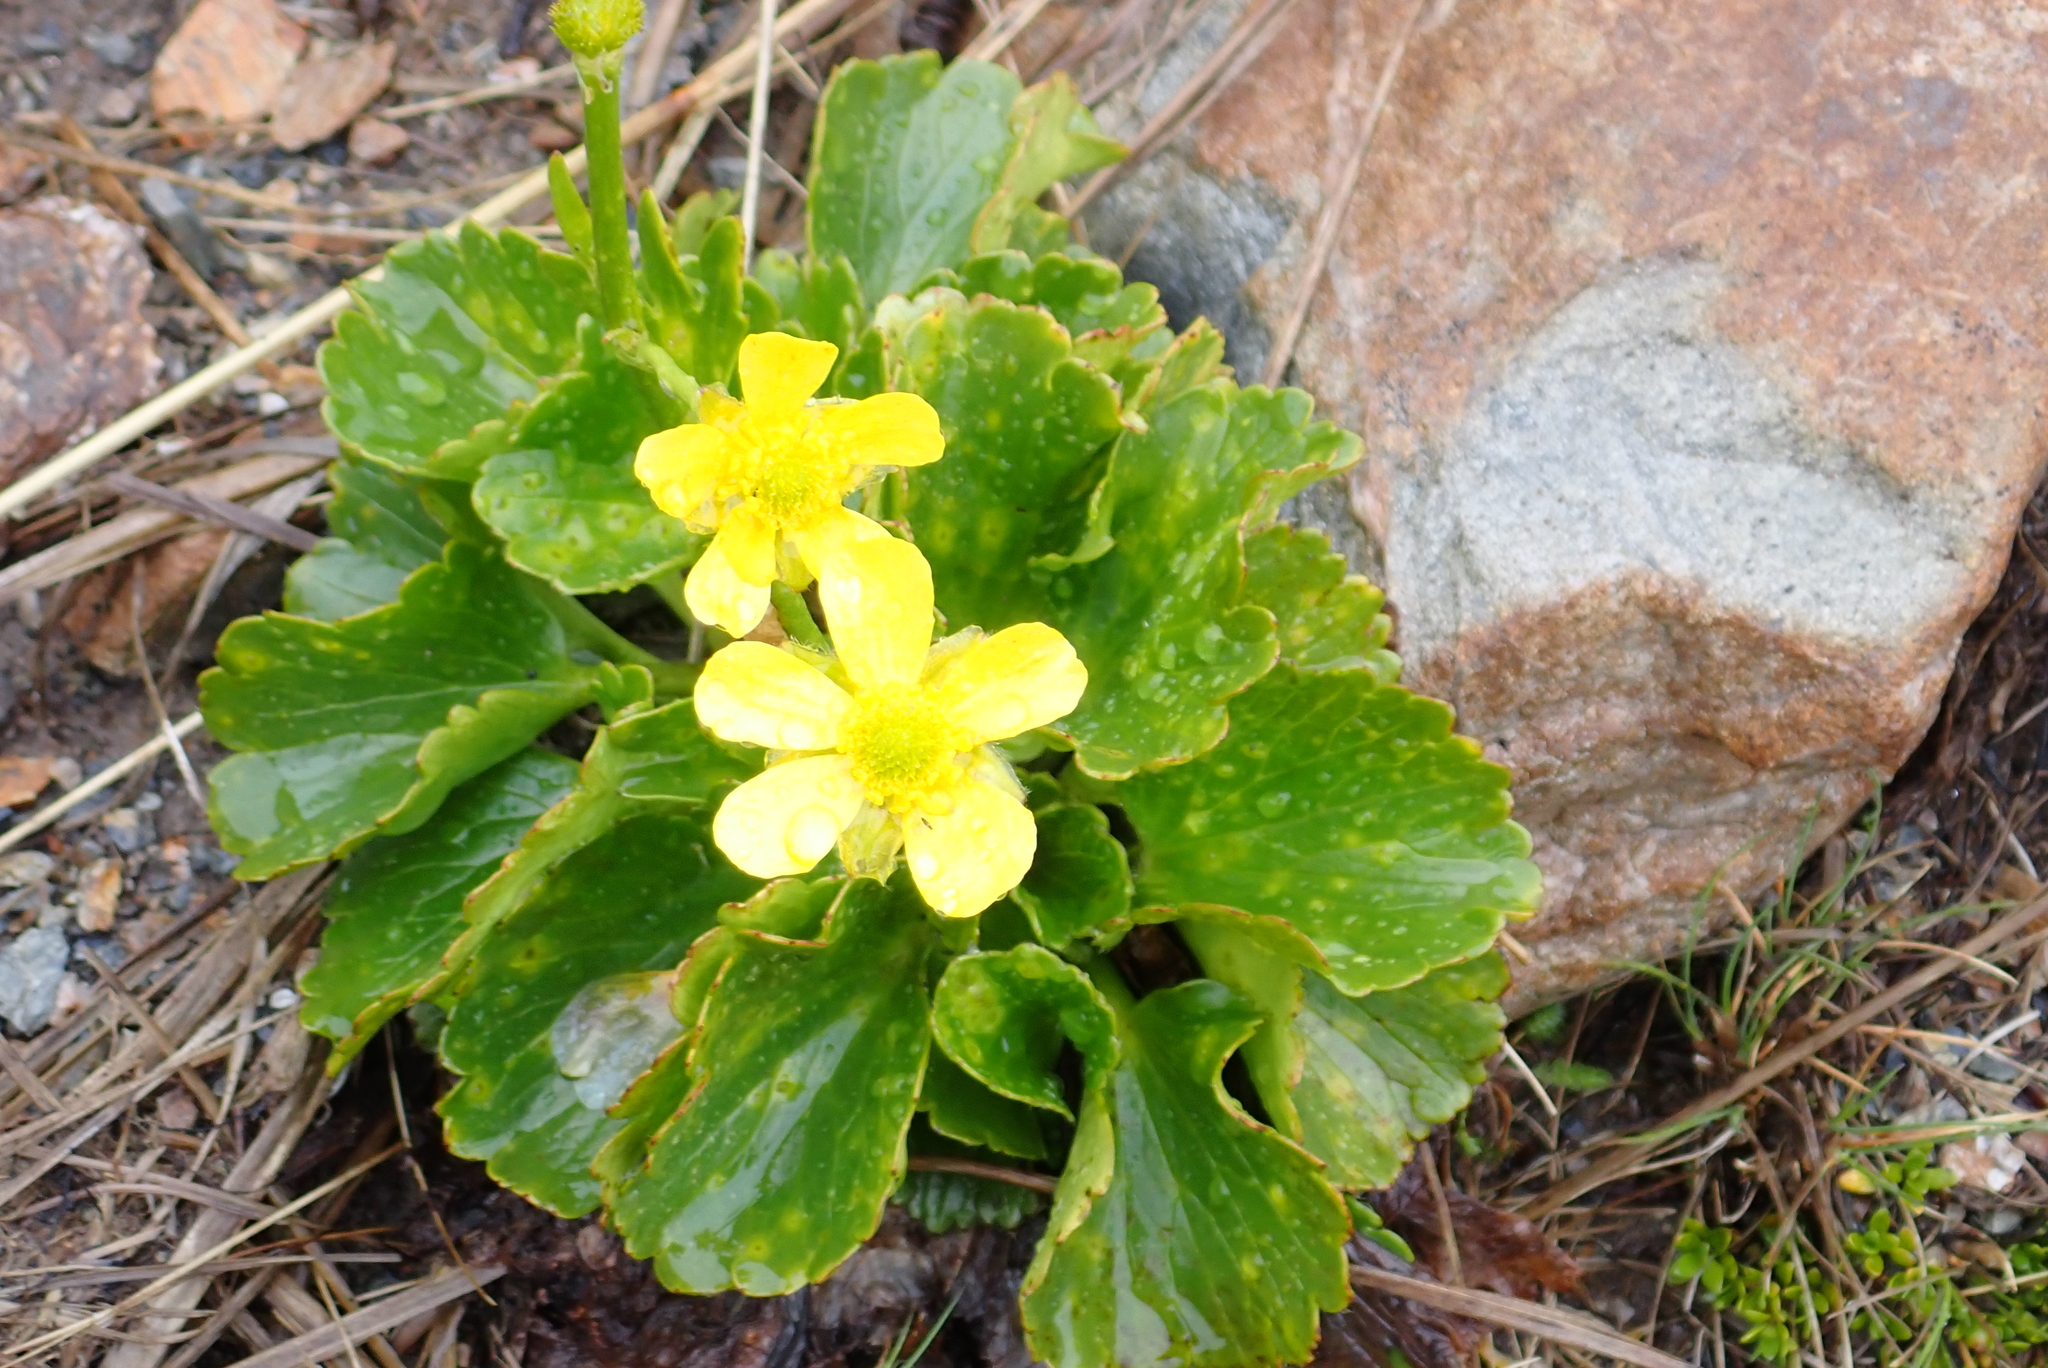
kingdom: Plantae
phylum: Tracheophyta
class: Magnoliopsida
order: Ranunculales
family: Ranunculaceae
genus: Ranunculus
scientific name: Ranunculus insignis
